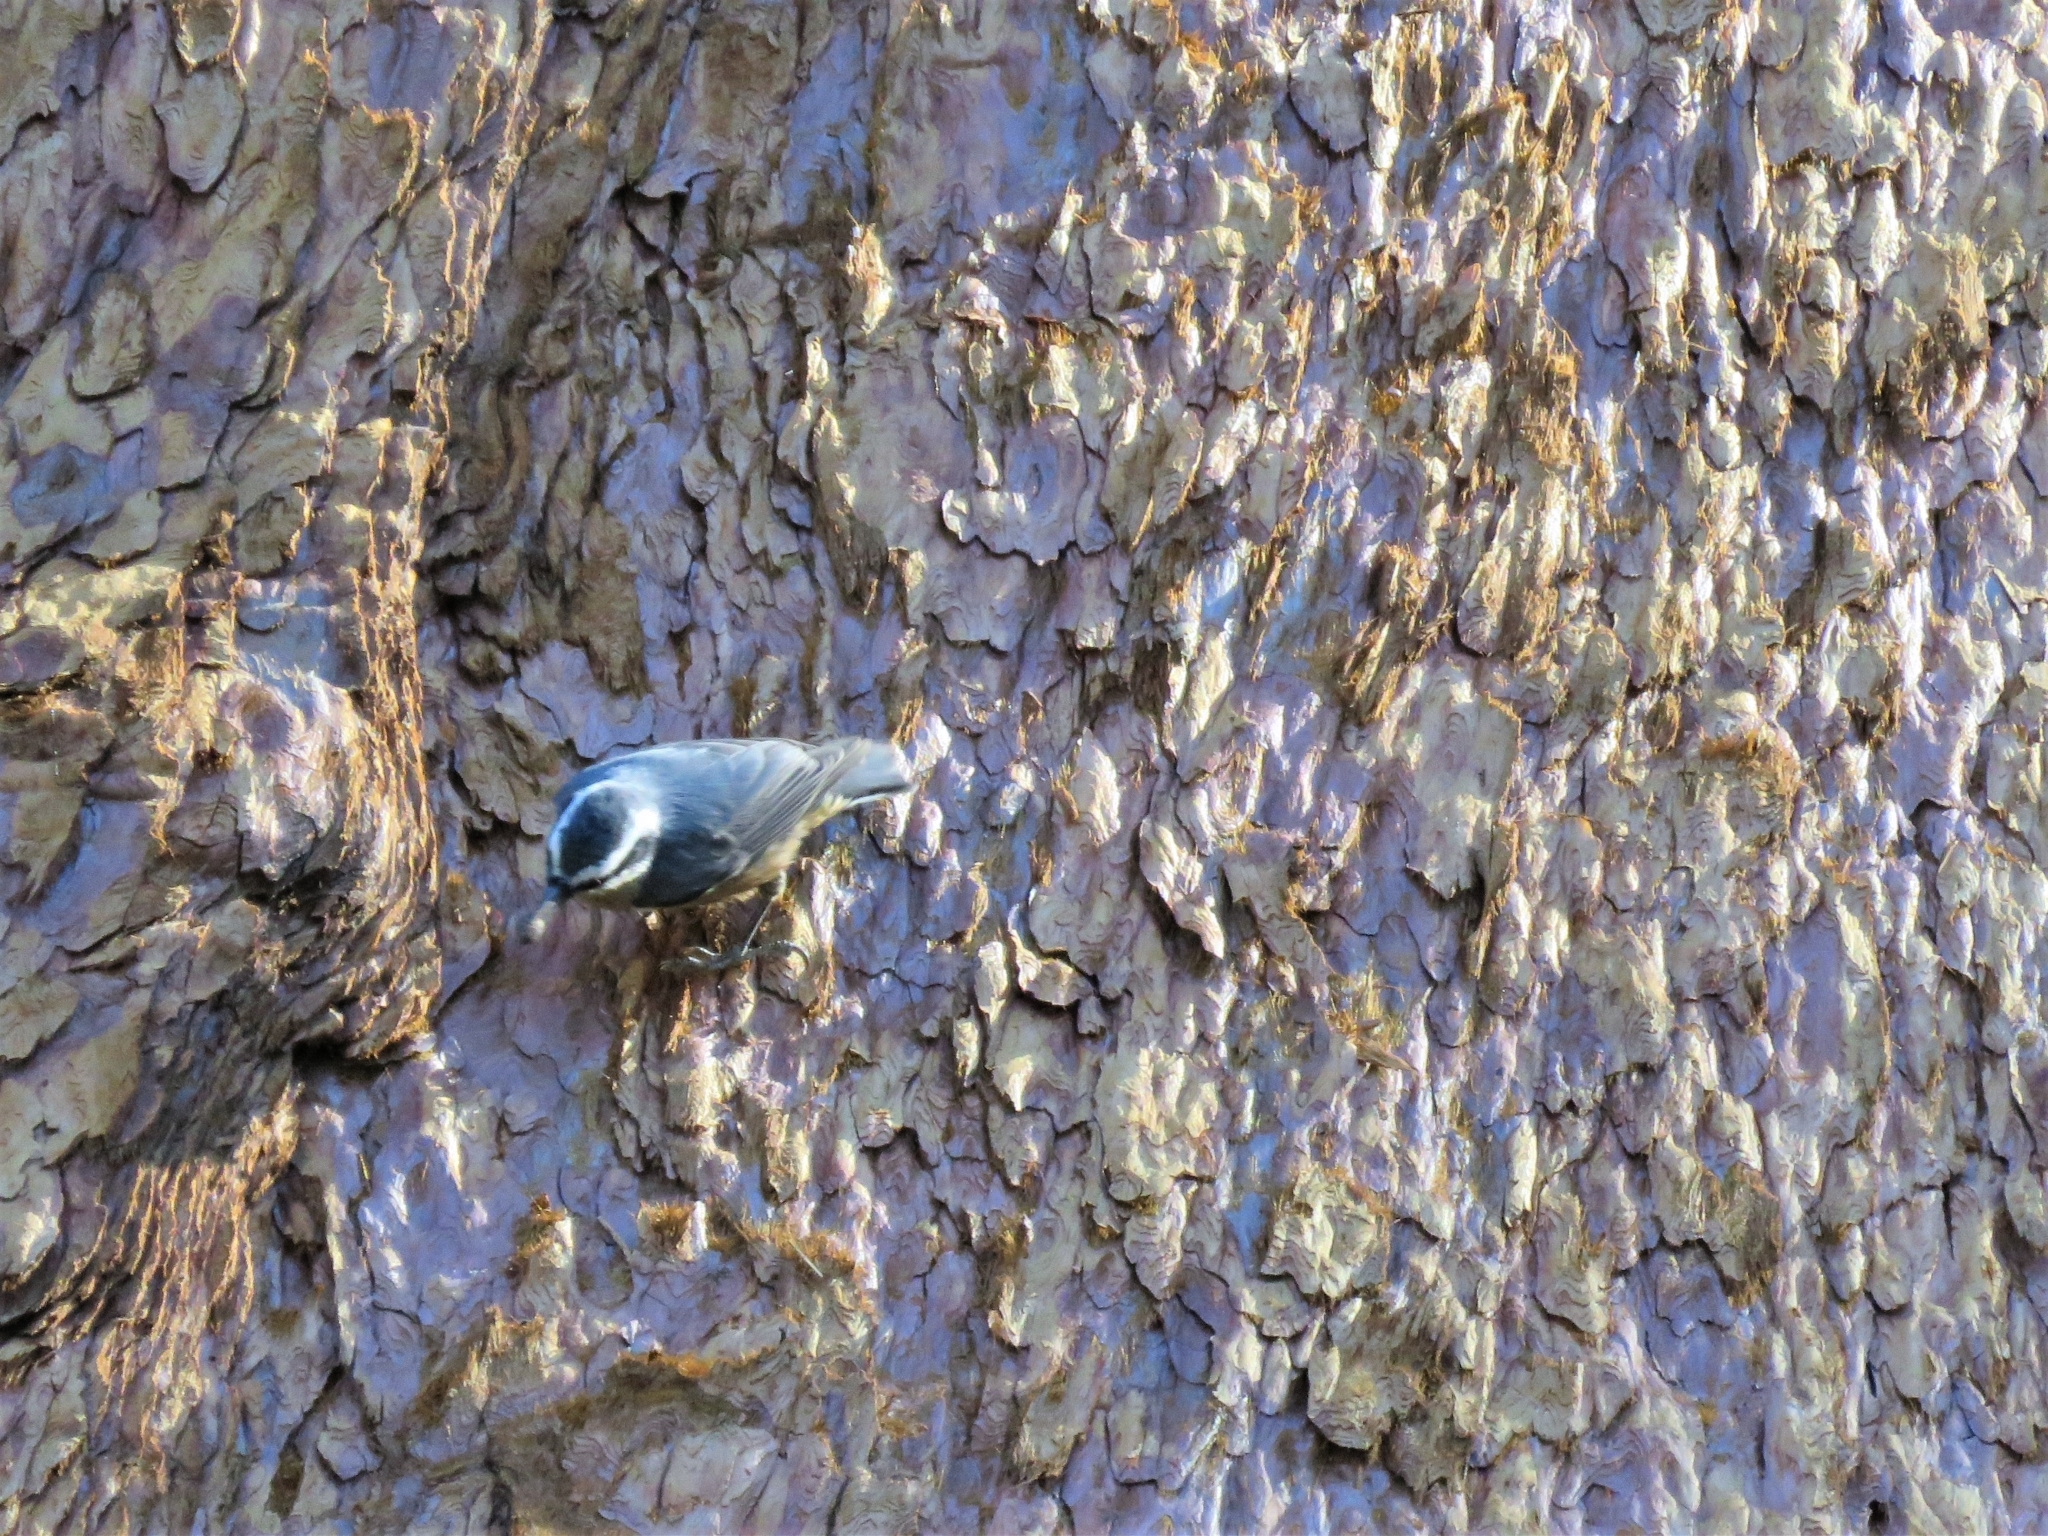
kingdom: Animalia
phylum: Chordata
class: Aves
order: Passeriformes
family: Sittidae
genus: Sitta
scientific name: Sitta canadensis
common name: Red-breasted nuthatch
